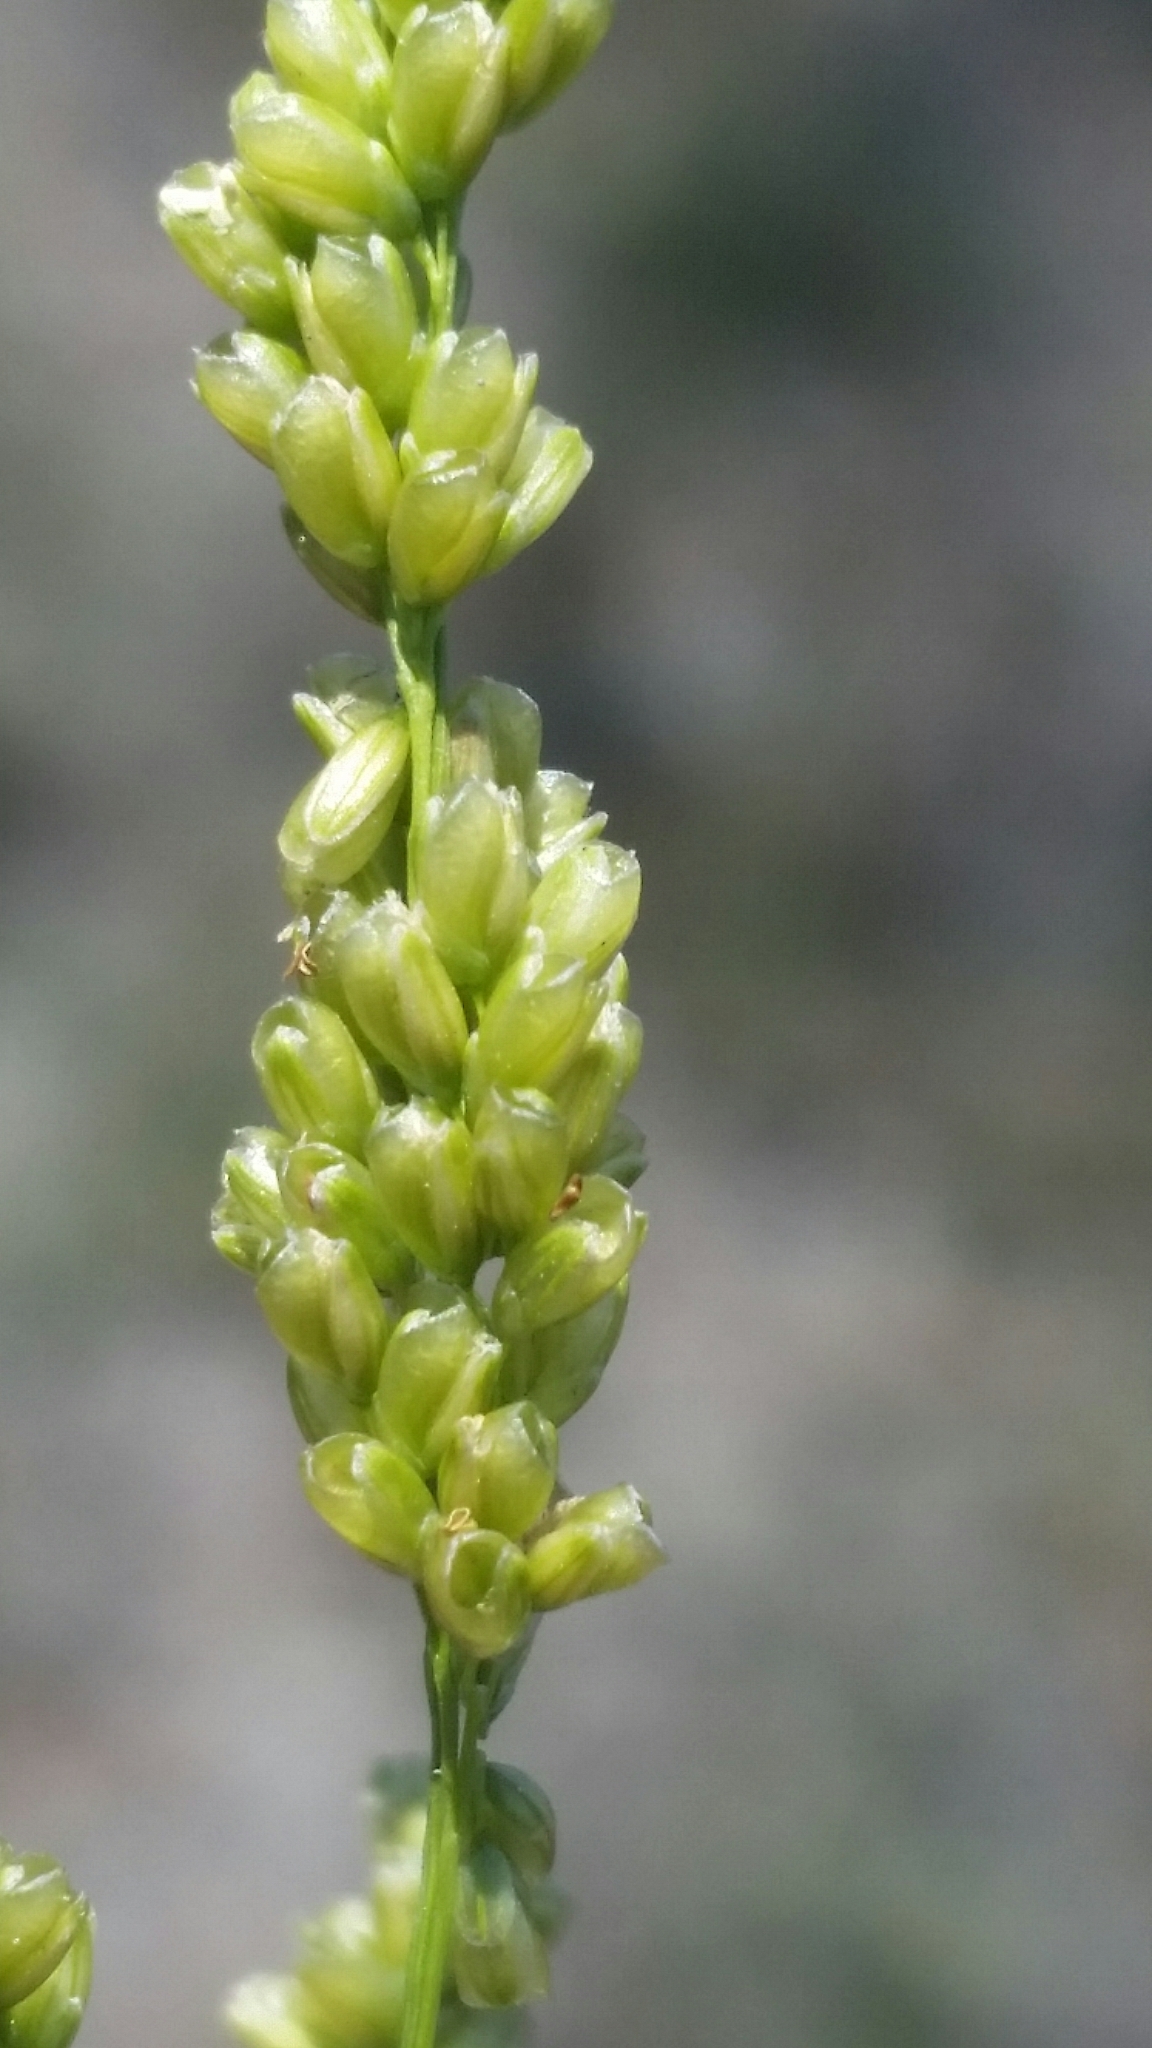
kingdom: Plantae
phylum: Tracheophyta
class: Liliopsida
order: Poales
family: Poaceae
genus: Steinchisma
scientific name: Steinchisma hians
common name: Gaping panic grass
